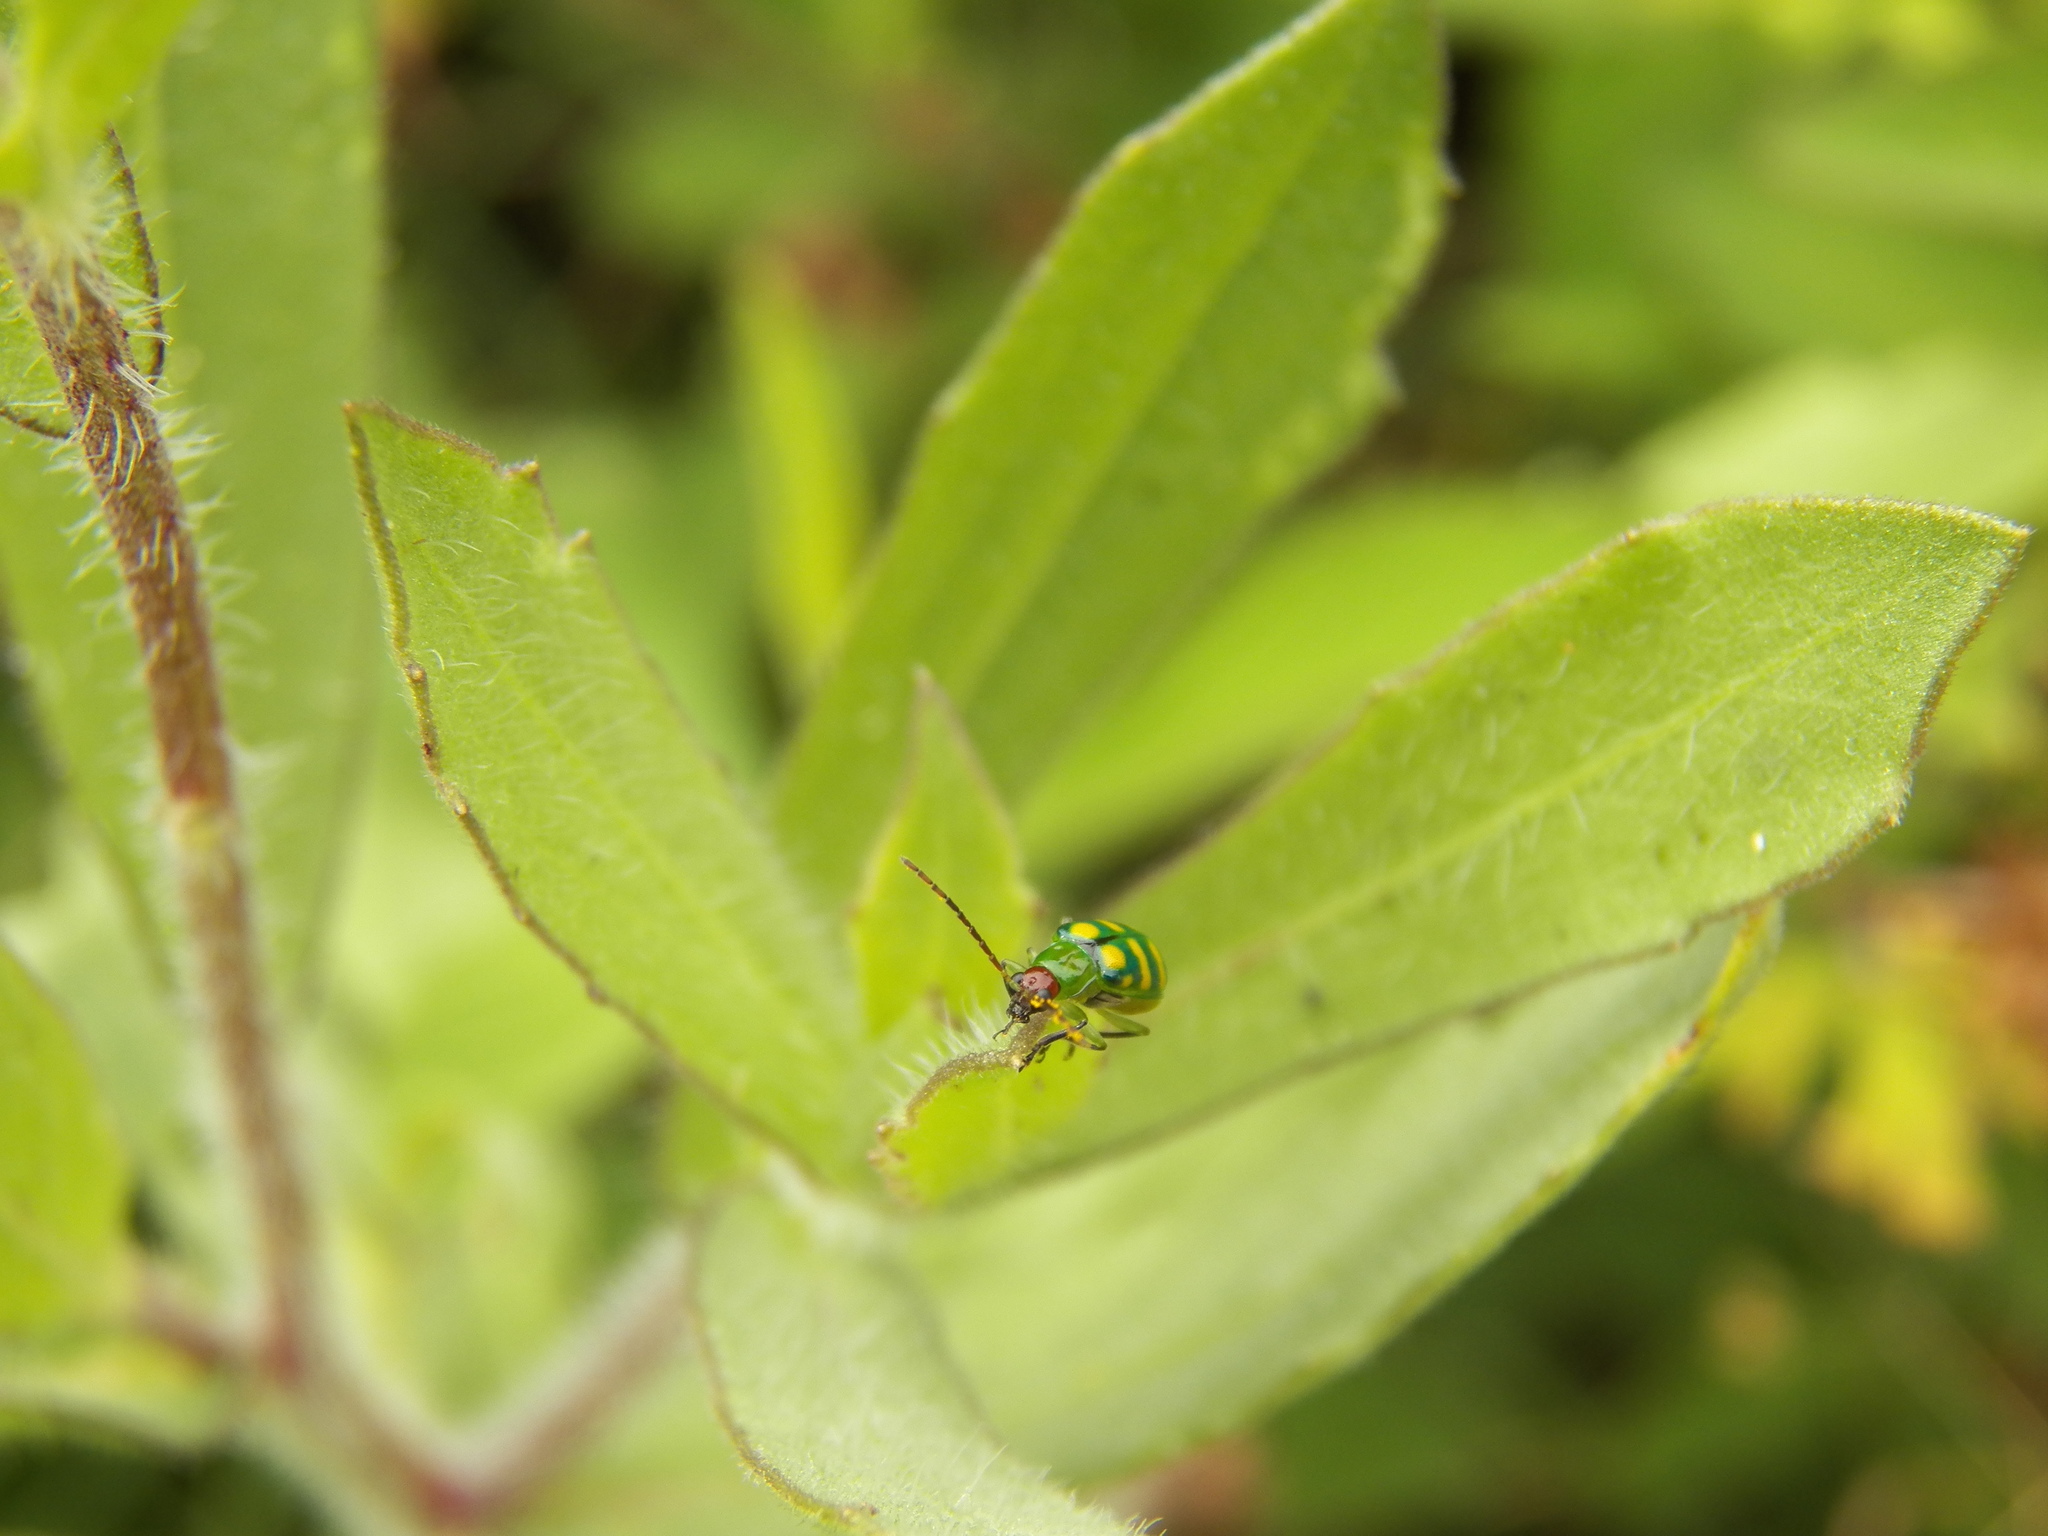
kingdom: Animalia
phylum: Arthropoda
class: Insecta
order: Coleoptera
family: Chrysomelidae
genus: Diabrotica
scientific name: Diabrotica balteata
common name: Leaf beetle
